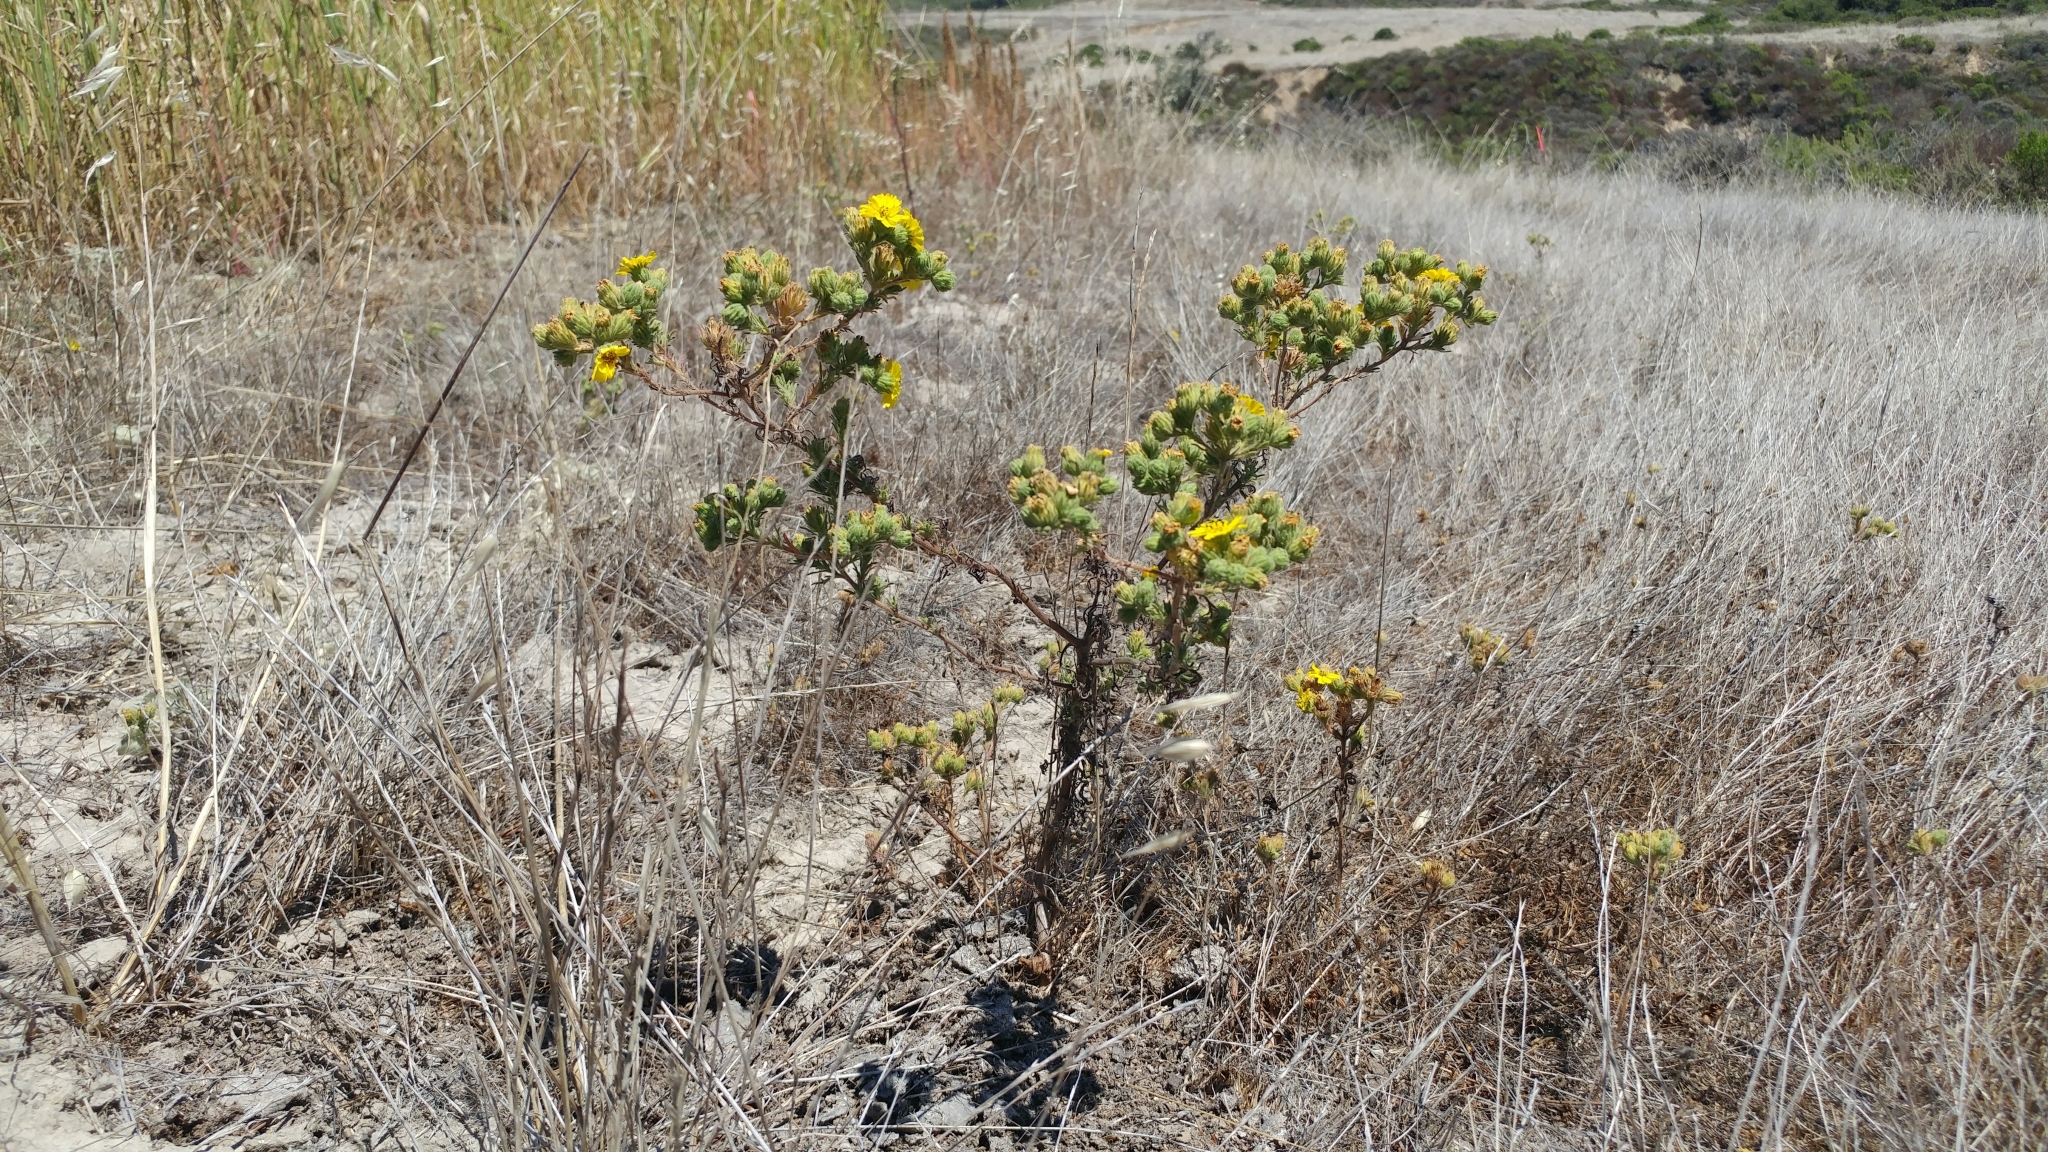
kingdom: Plantae
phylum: Tracheophyta
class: Magnoliopsida
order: Asterales
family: Asteraceae
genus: Deinandra
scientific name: Deinandra increscens
